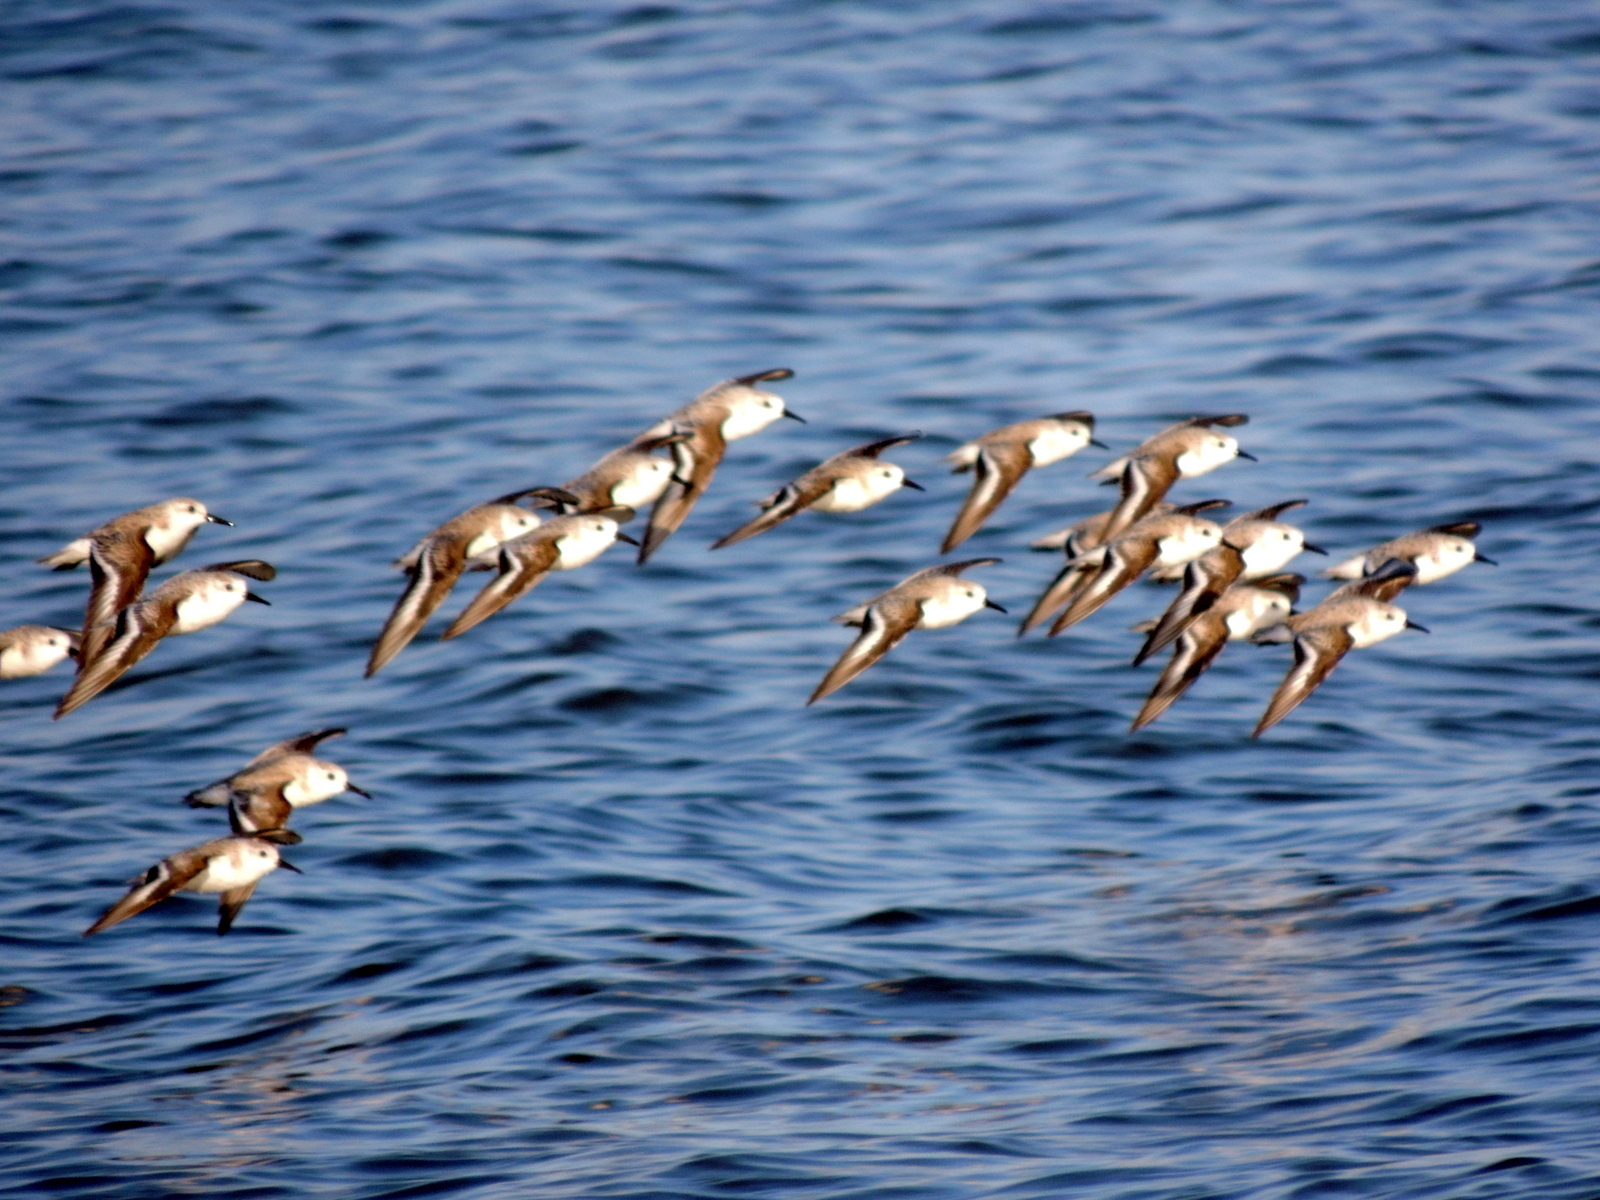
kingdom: Animalia
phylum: Chordata
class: Aves
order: Charadriiformes
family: Scolopacidae
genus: Calidris
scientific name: Calidris alba
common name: Sanderling
